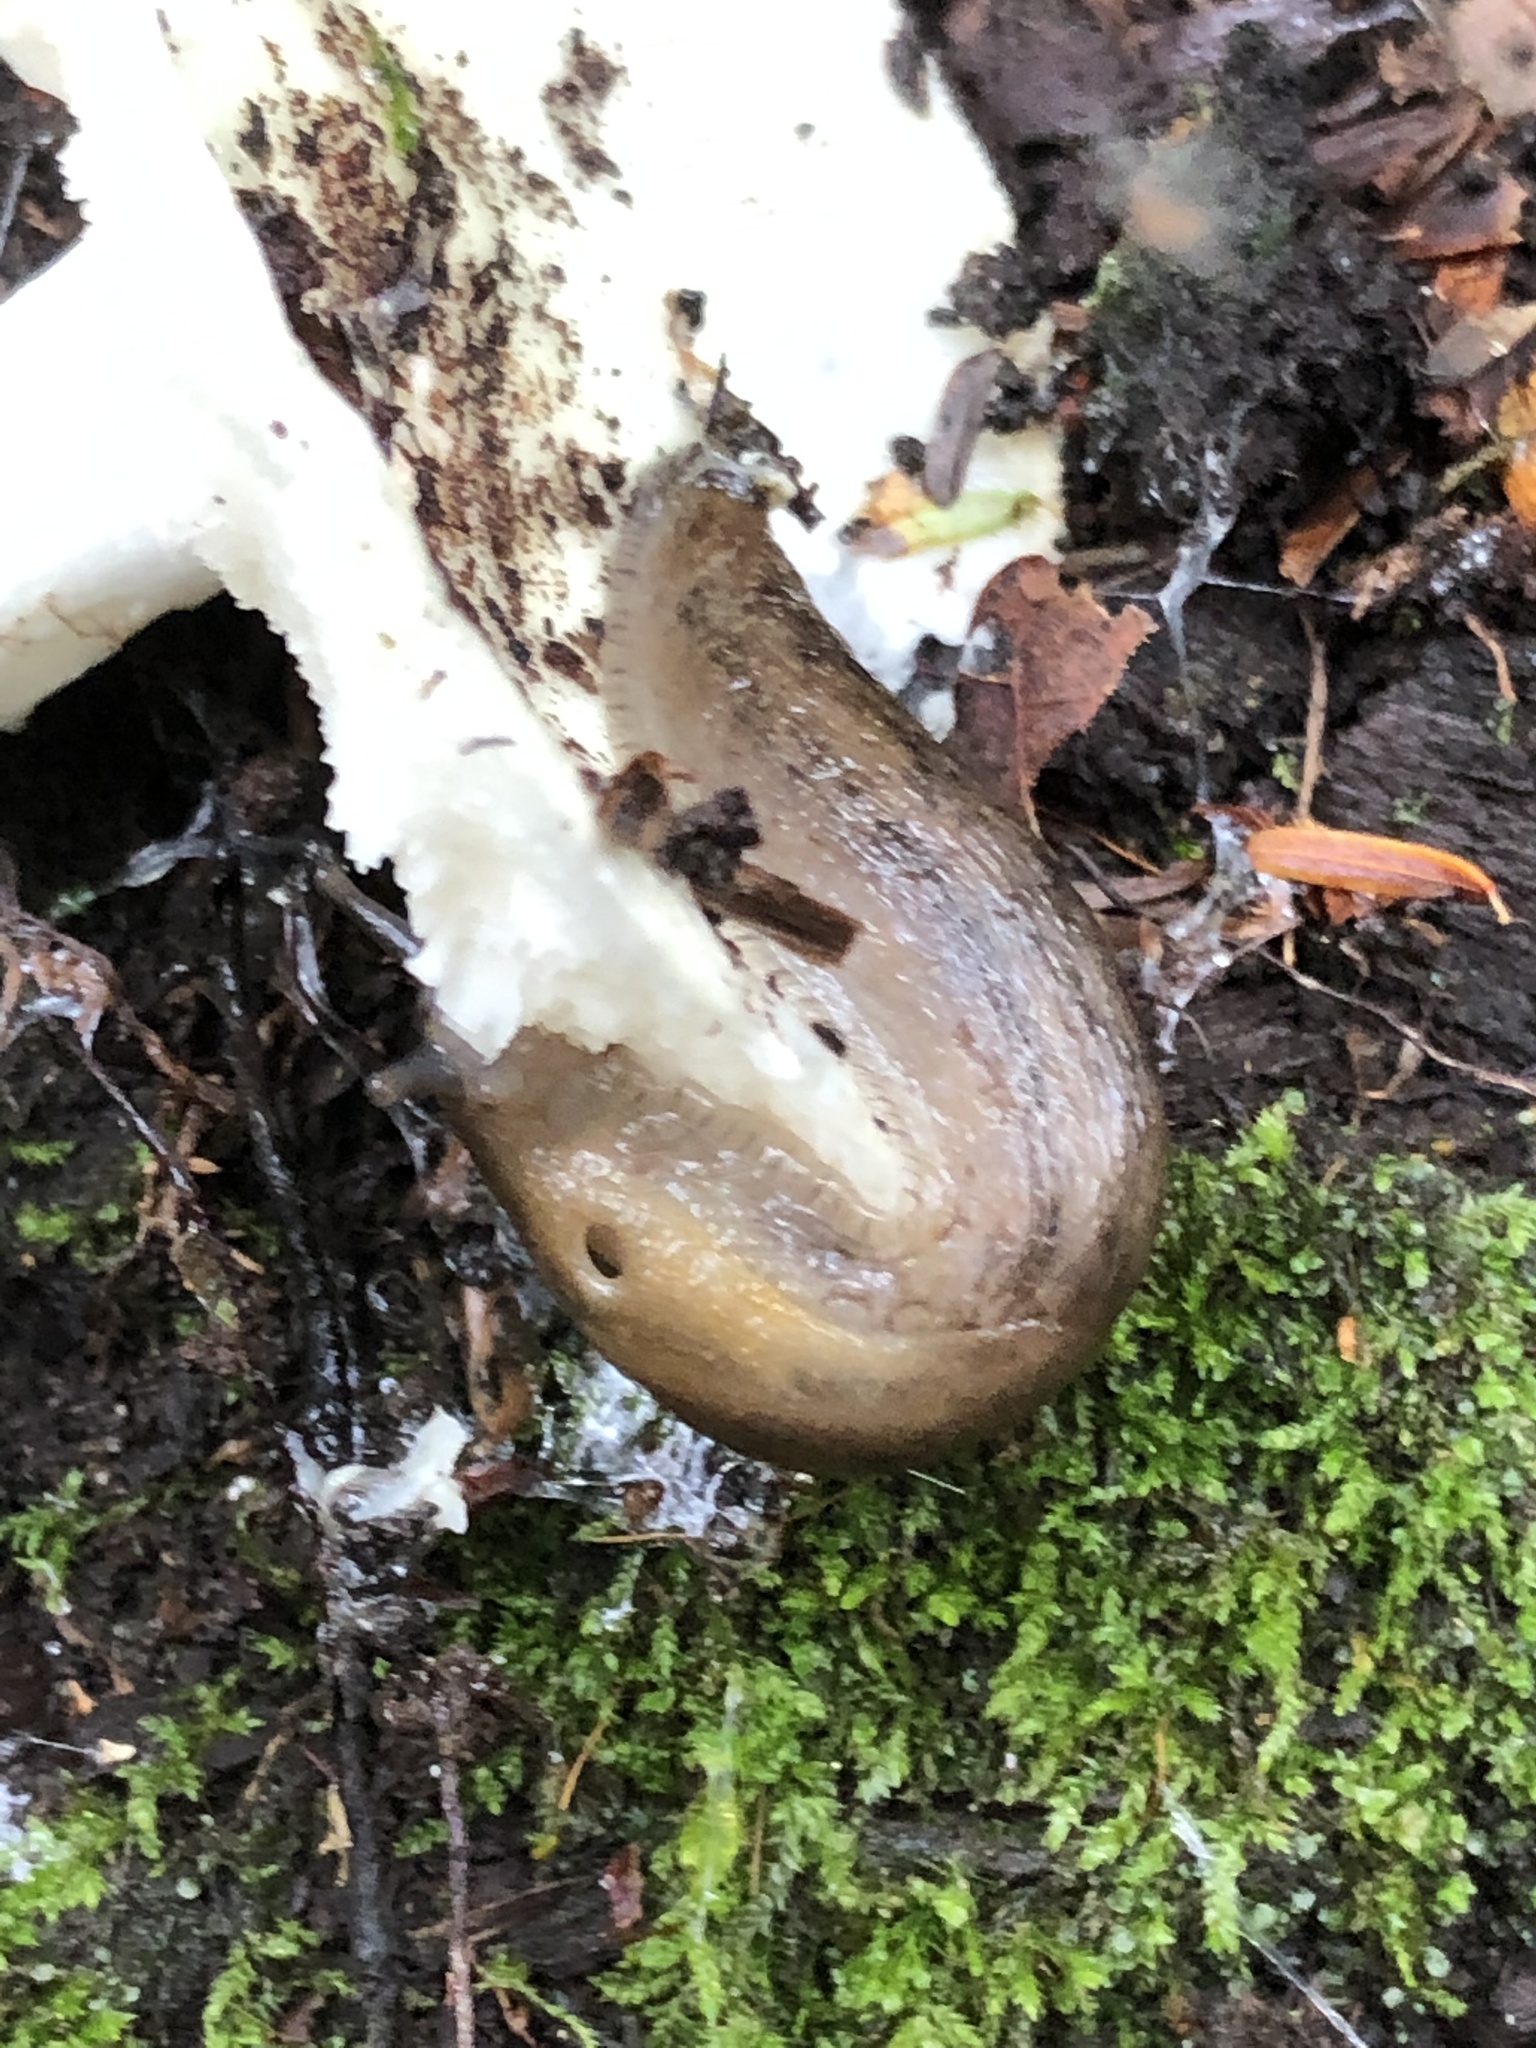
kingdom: Animalia
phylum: Mollusca
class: Gastropoda
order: Stylommatophora
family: Arionidae
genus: Arion
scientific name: Arion subfuscus
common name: Dusky arion
